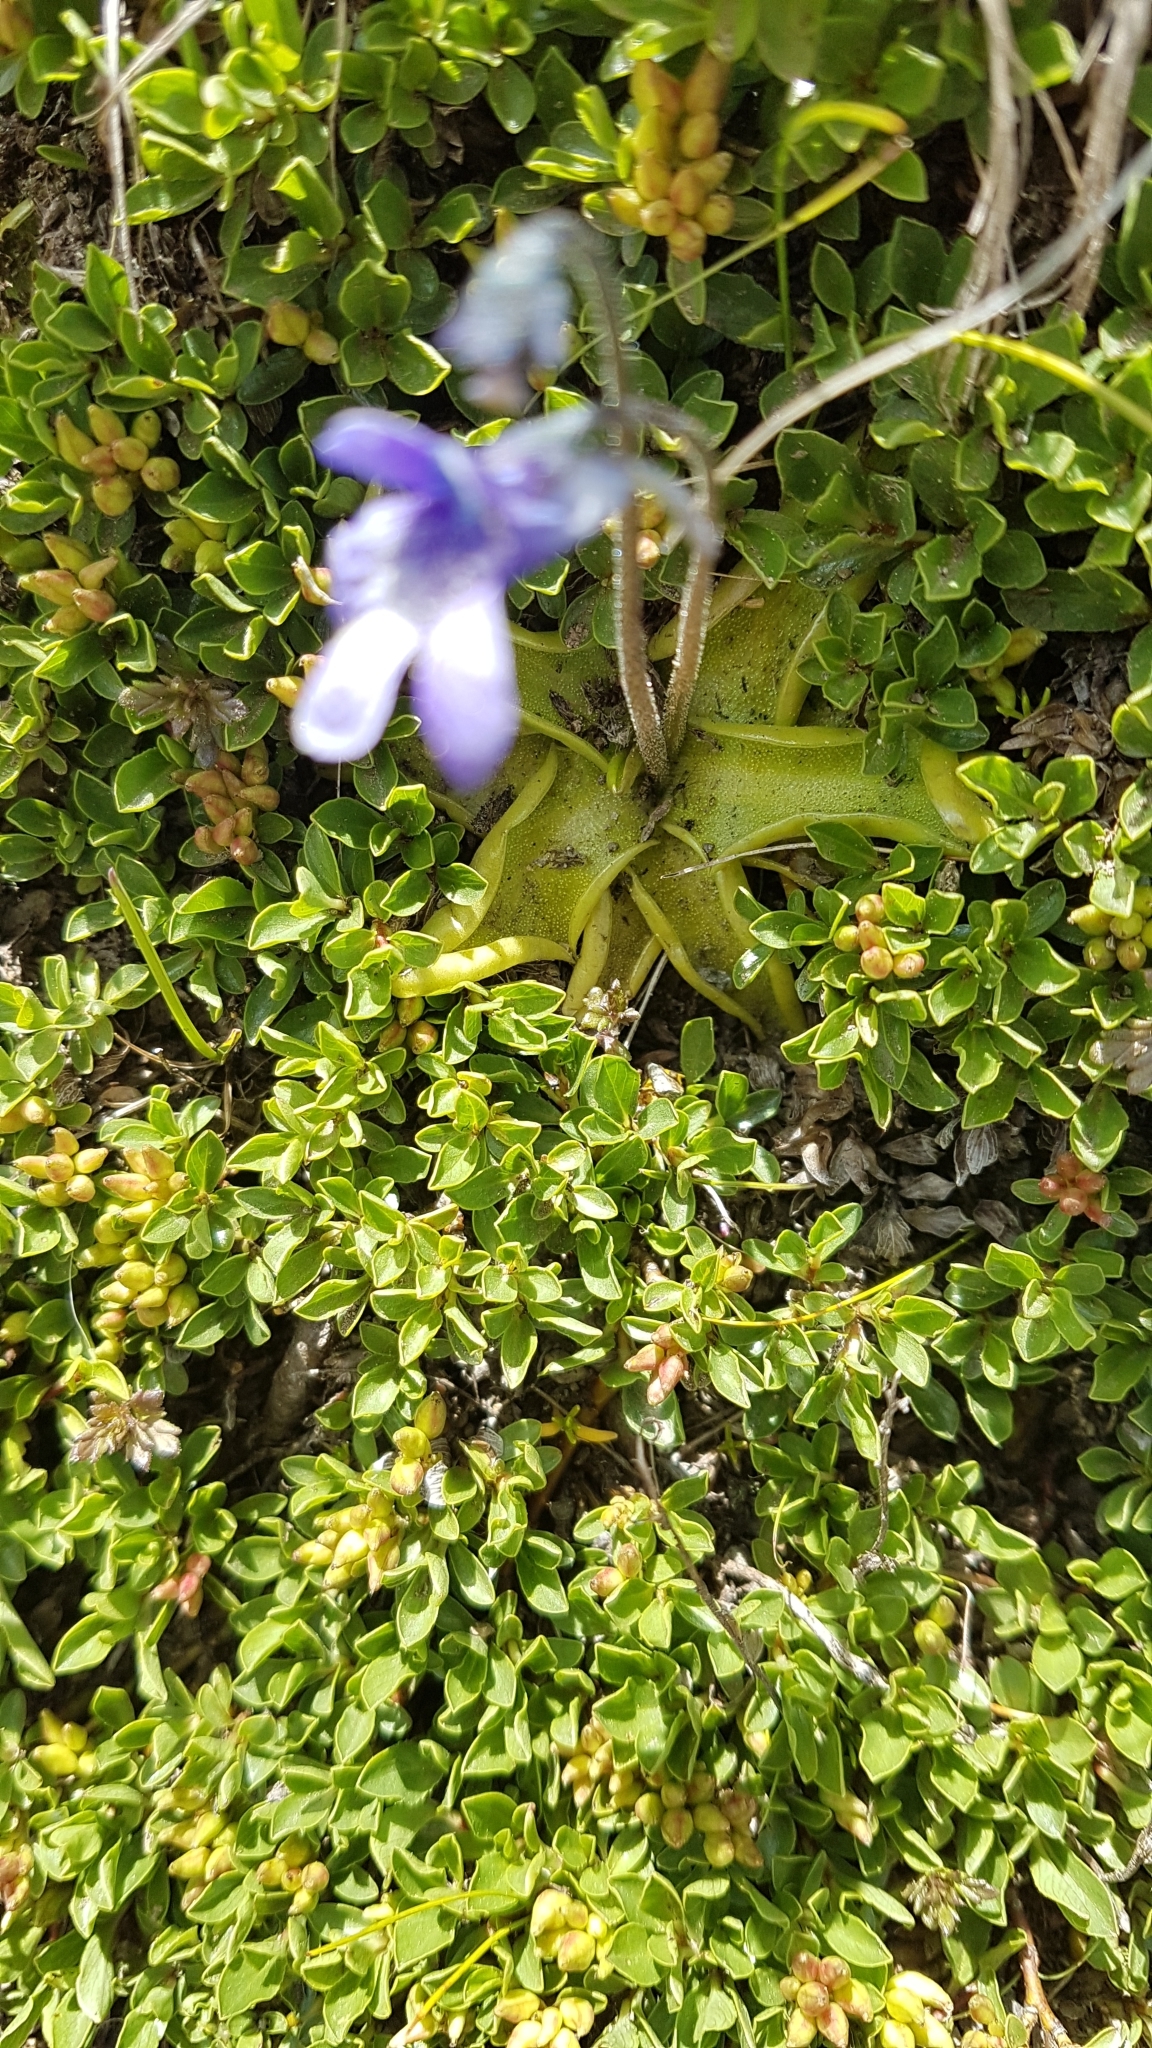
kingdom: Plantae
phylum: Tracheophyta
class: Magnoliopsida
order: Lamiales
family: Lentibulariaceae
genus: Pinguicula
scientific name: Pinguicula leptoceras
